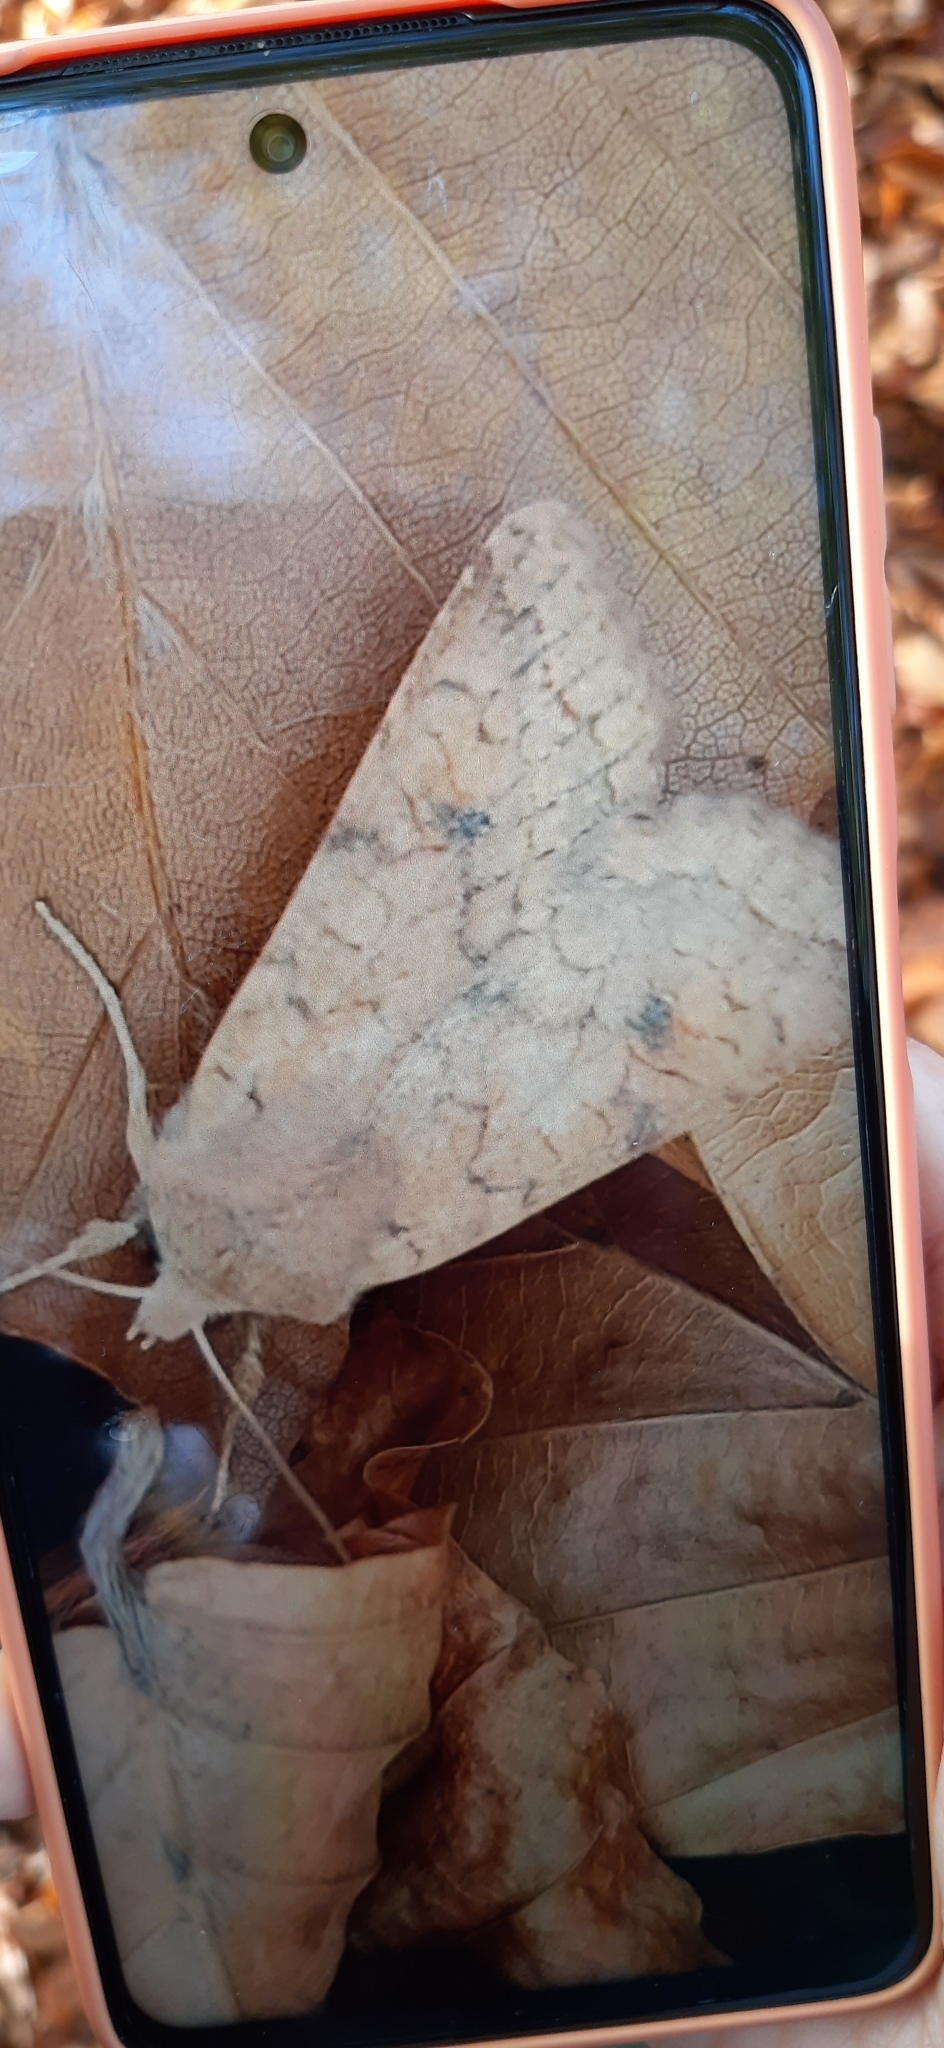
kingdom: Animalia
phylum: Arthropoda
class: Insecta
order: Lepidoptera
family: Noctuidae
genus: Sunira
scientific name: Sunira circellaris
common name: Brick
